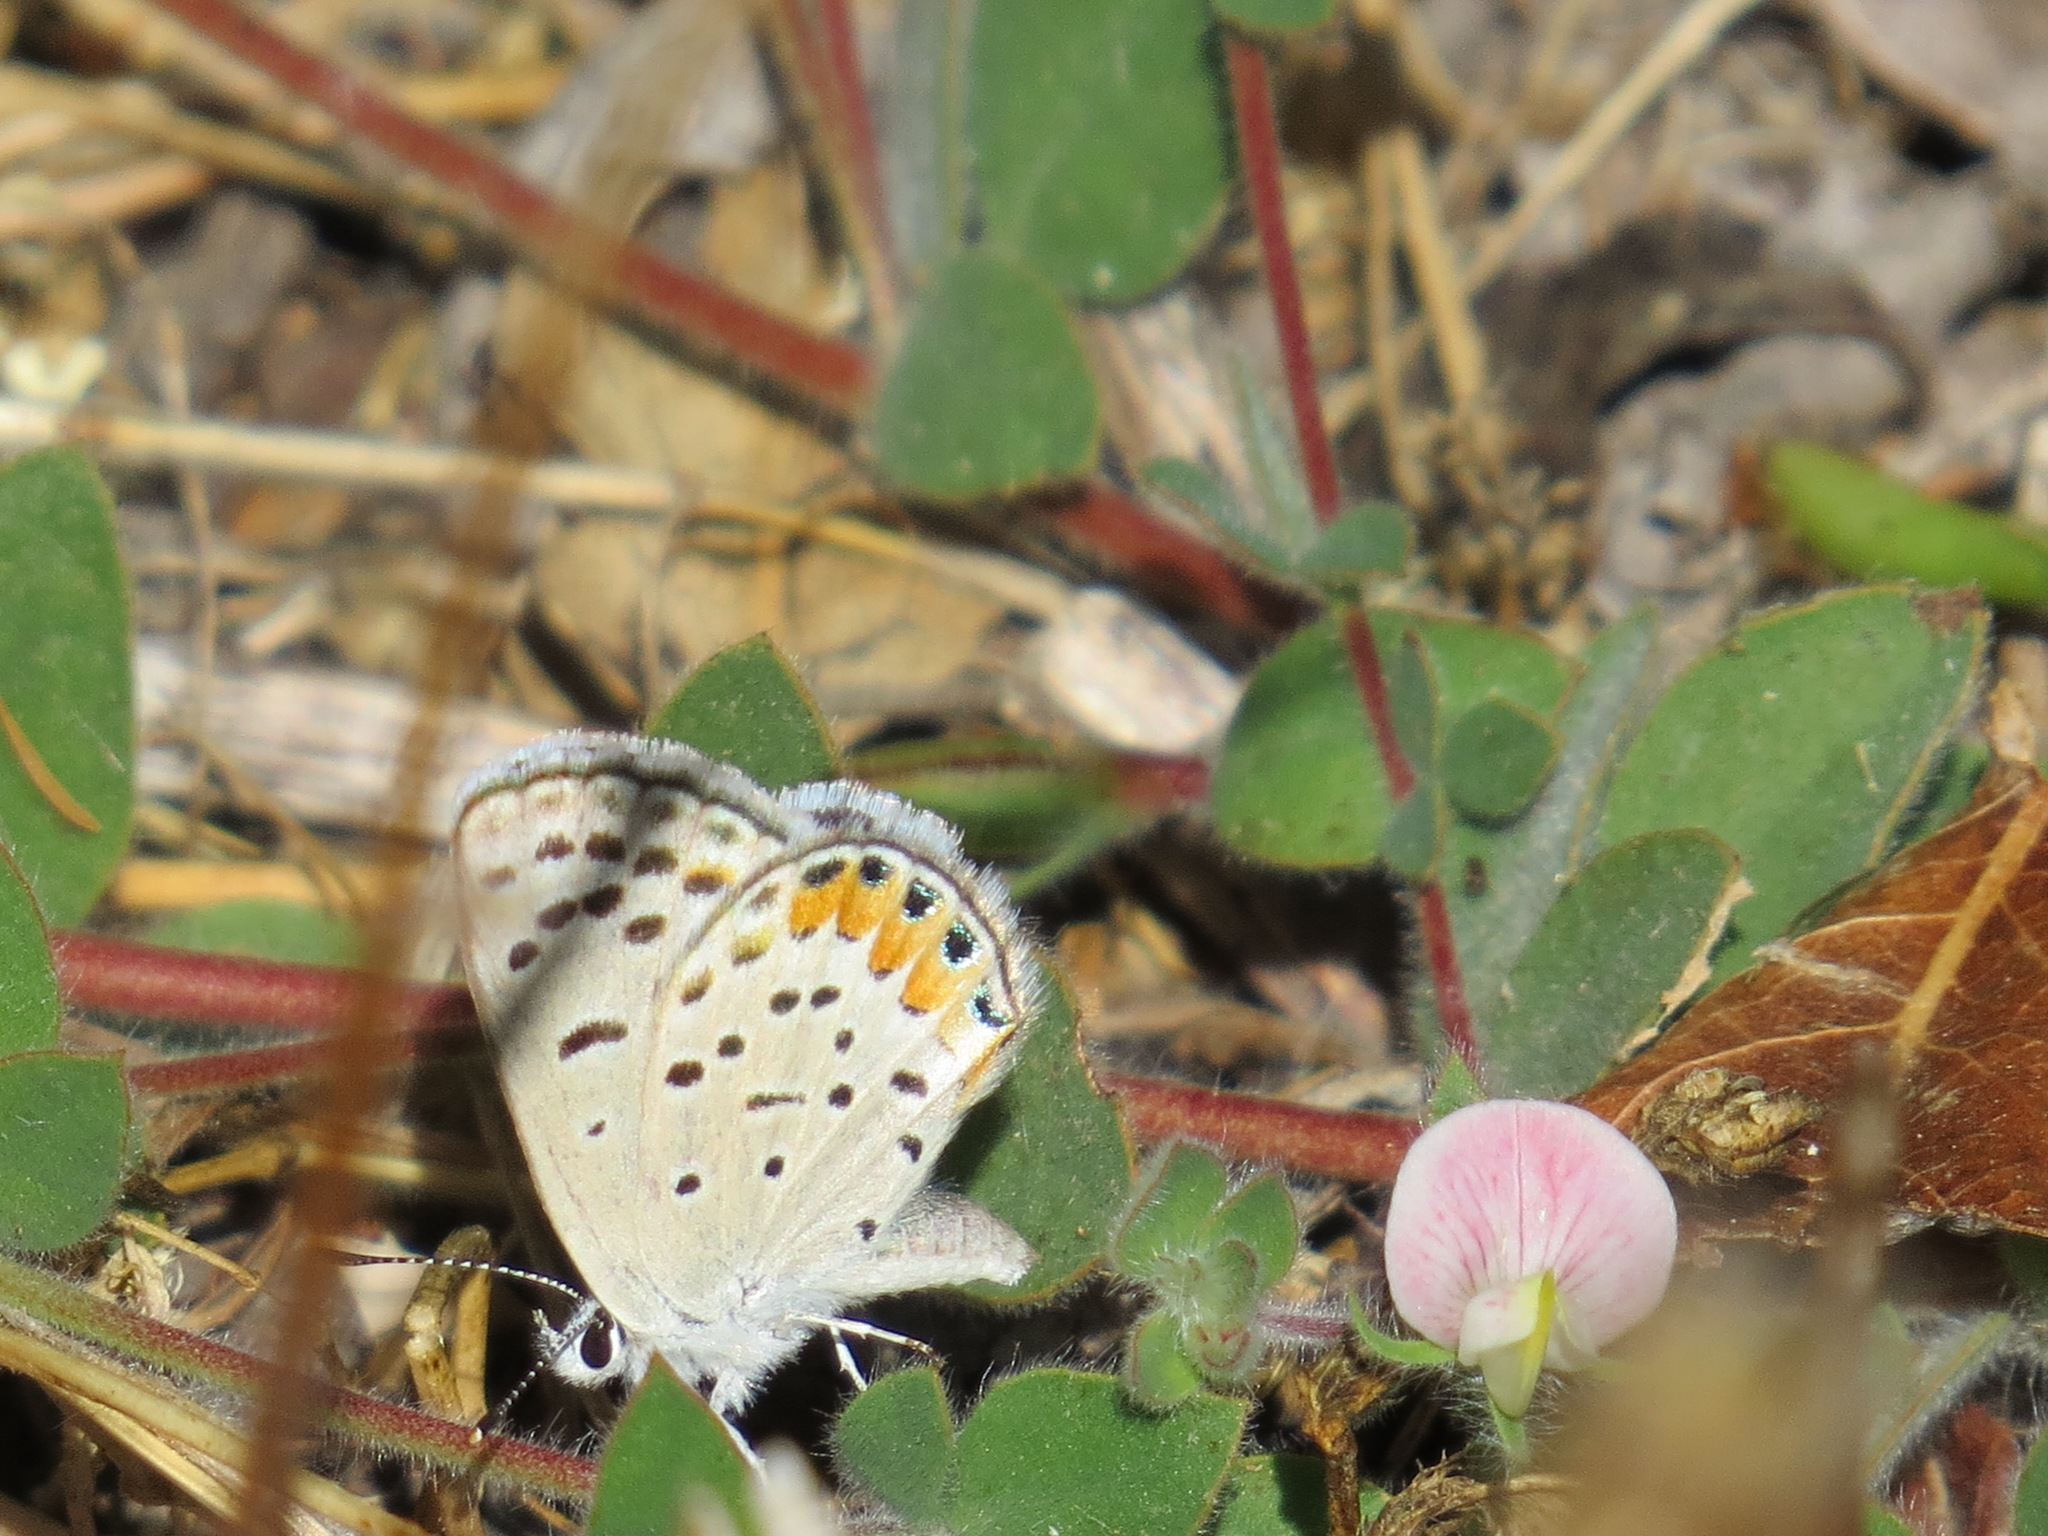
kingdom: Animalia
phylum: Arthropoda
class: Insecta
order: Lepidoptera
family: Lycaenidae
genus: Icaricia
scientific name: Icaricia acmon
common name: Acmon blue
